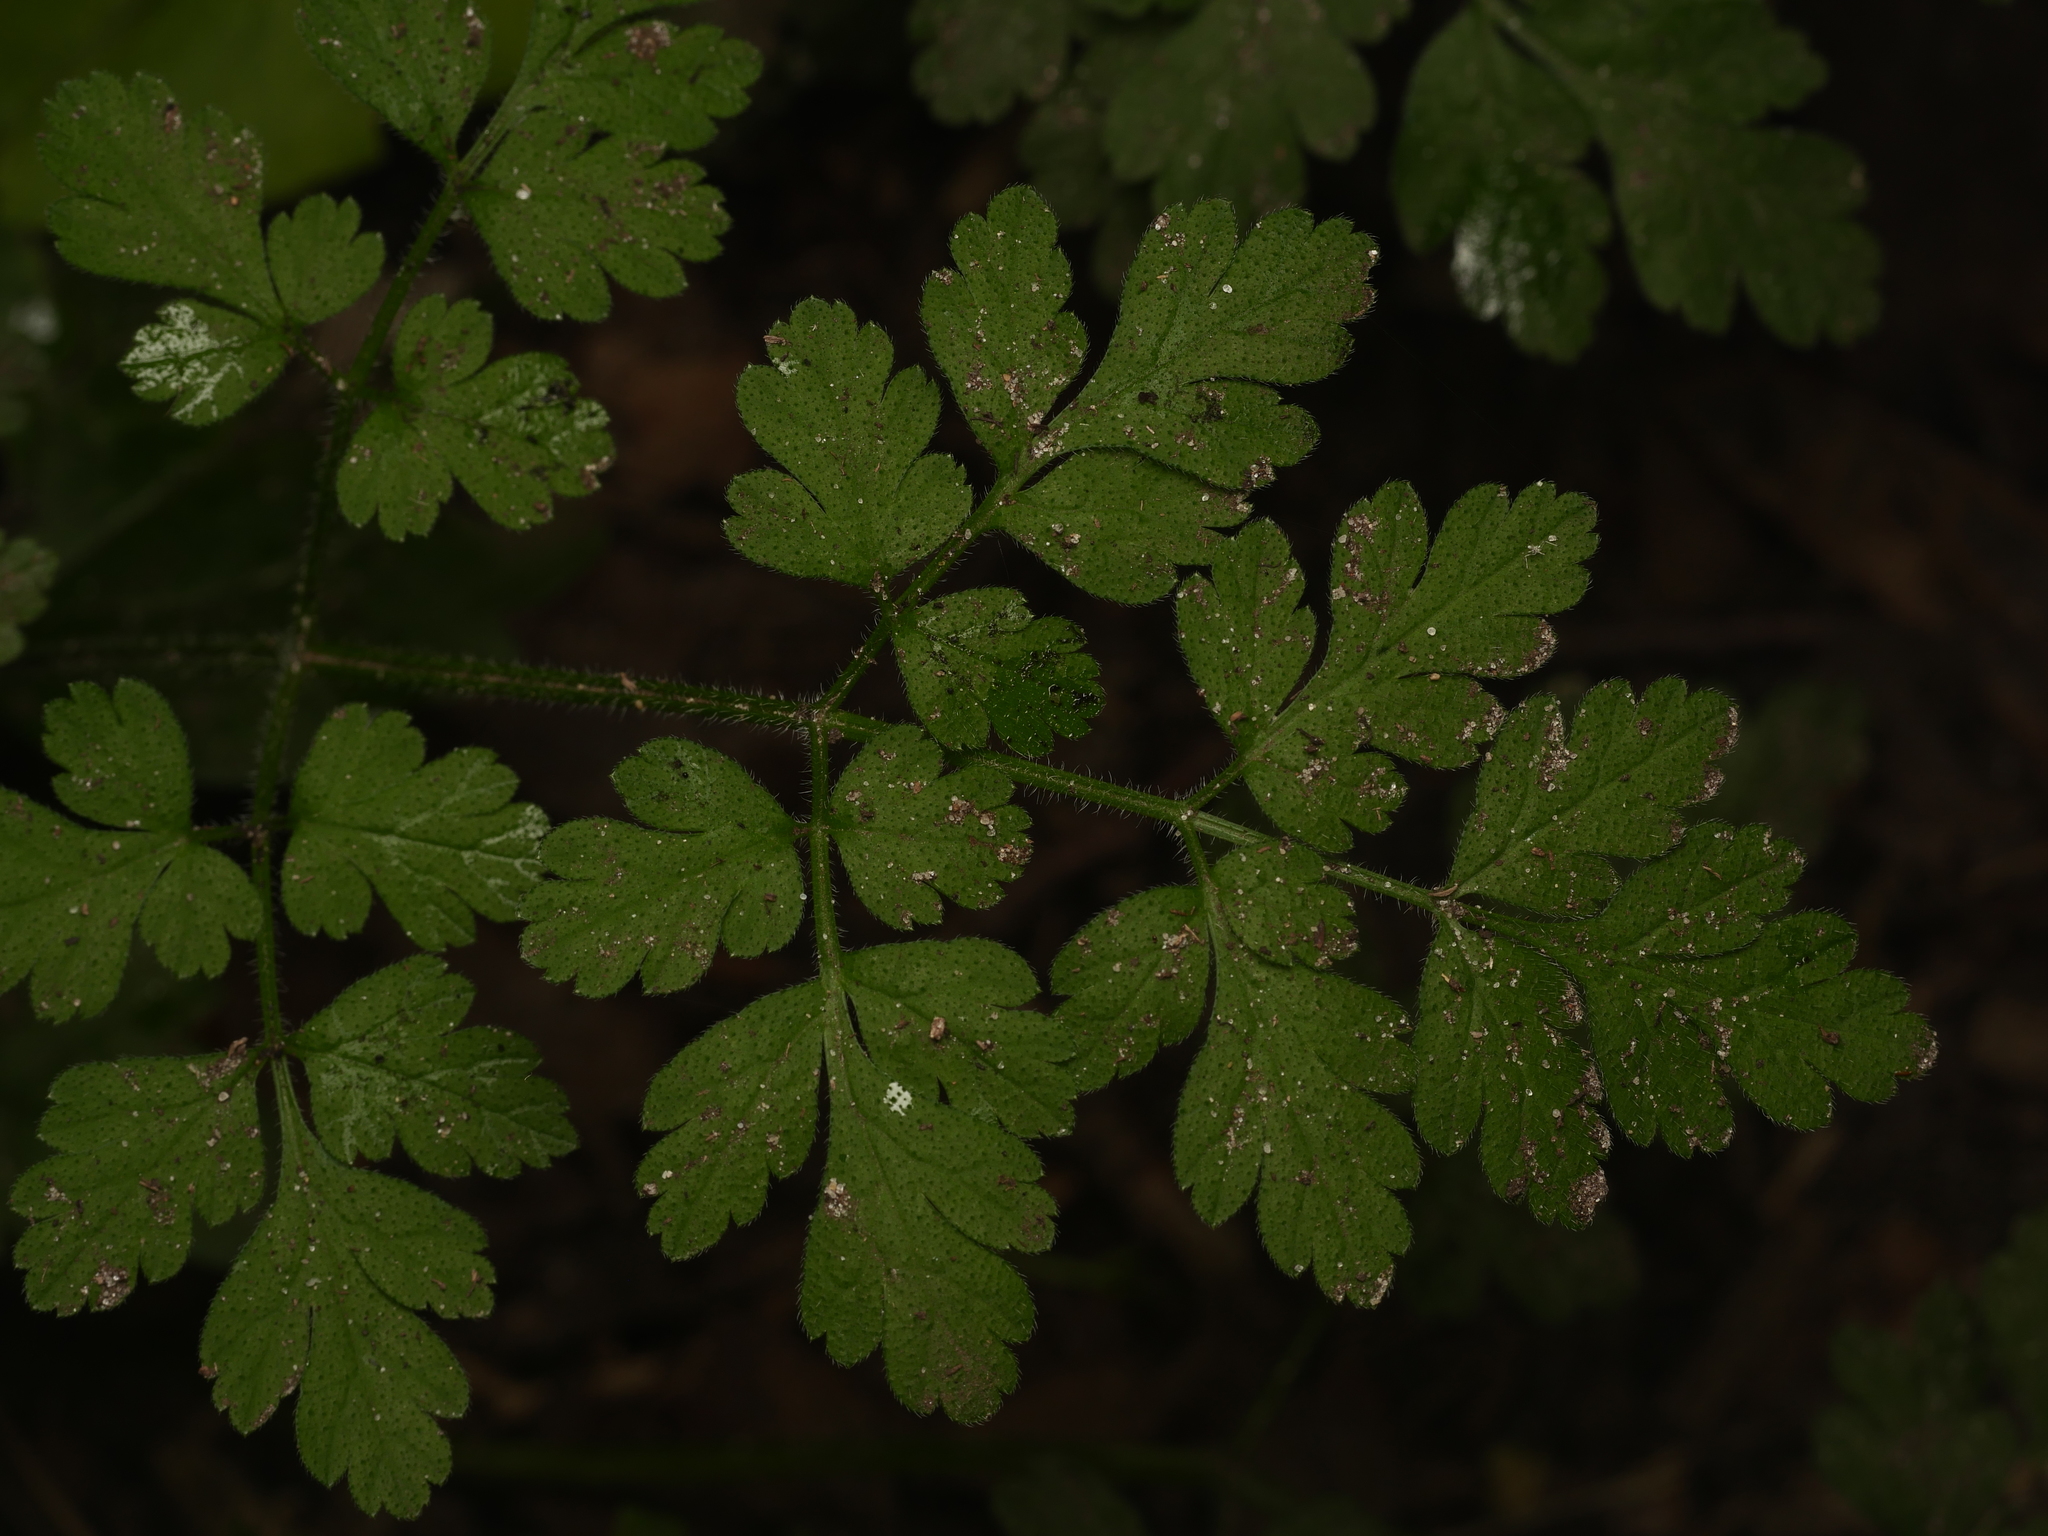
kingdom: Plantae
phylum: Tracheophyta
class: Magnoliopsida
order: Apiales
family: Apiaceae
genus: Chaerophyllum
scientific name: Chaerophyllum temulum
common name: Rough chervil
